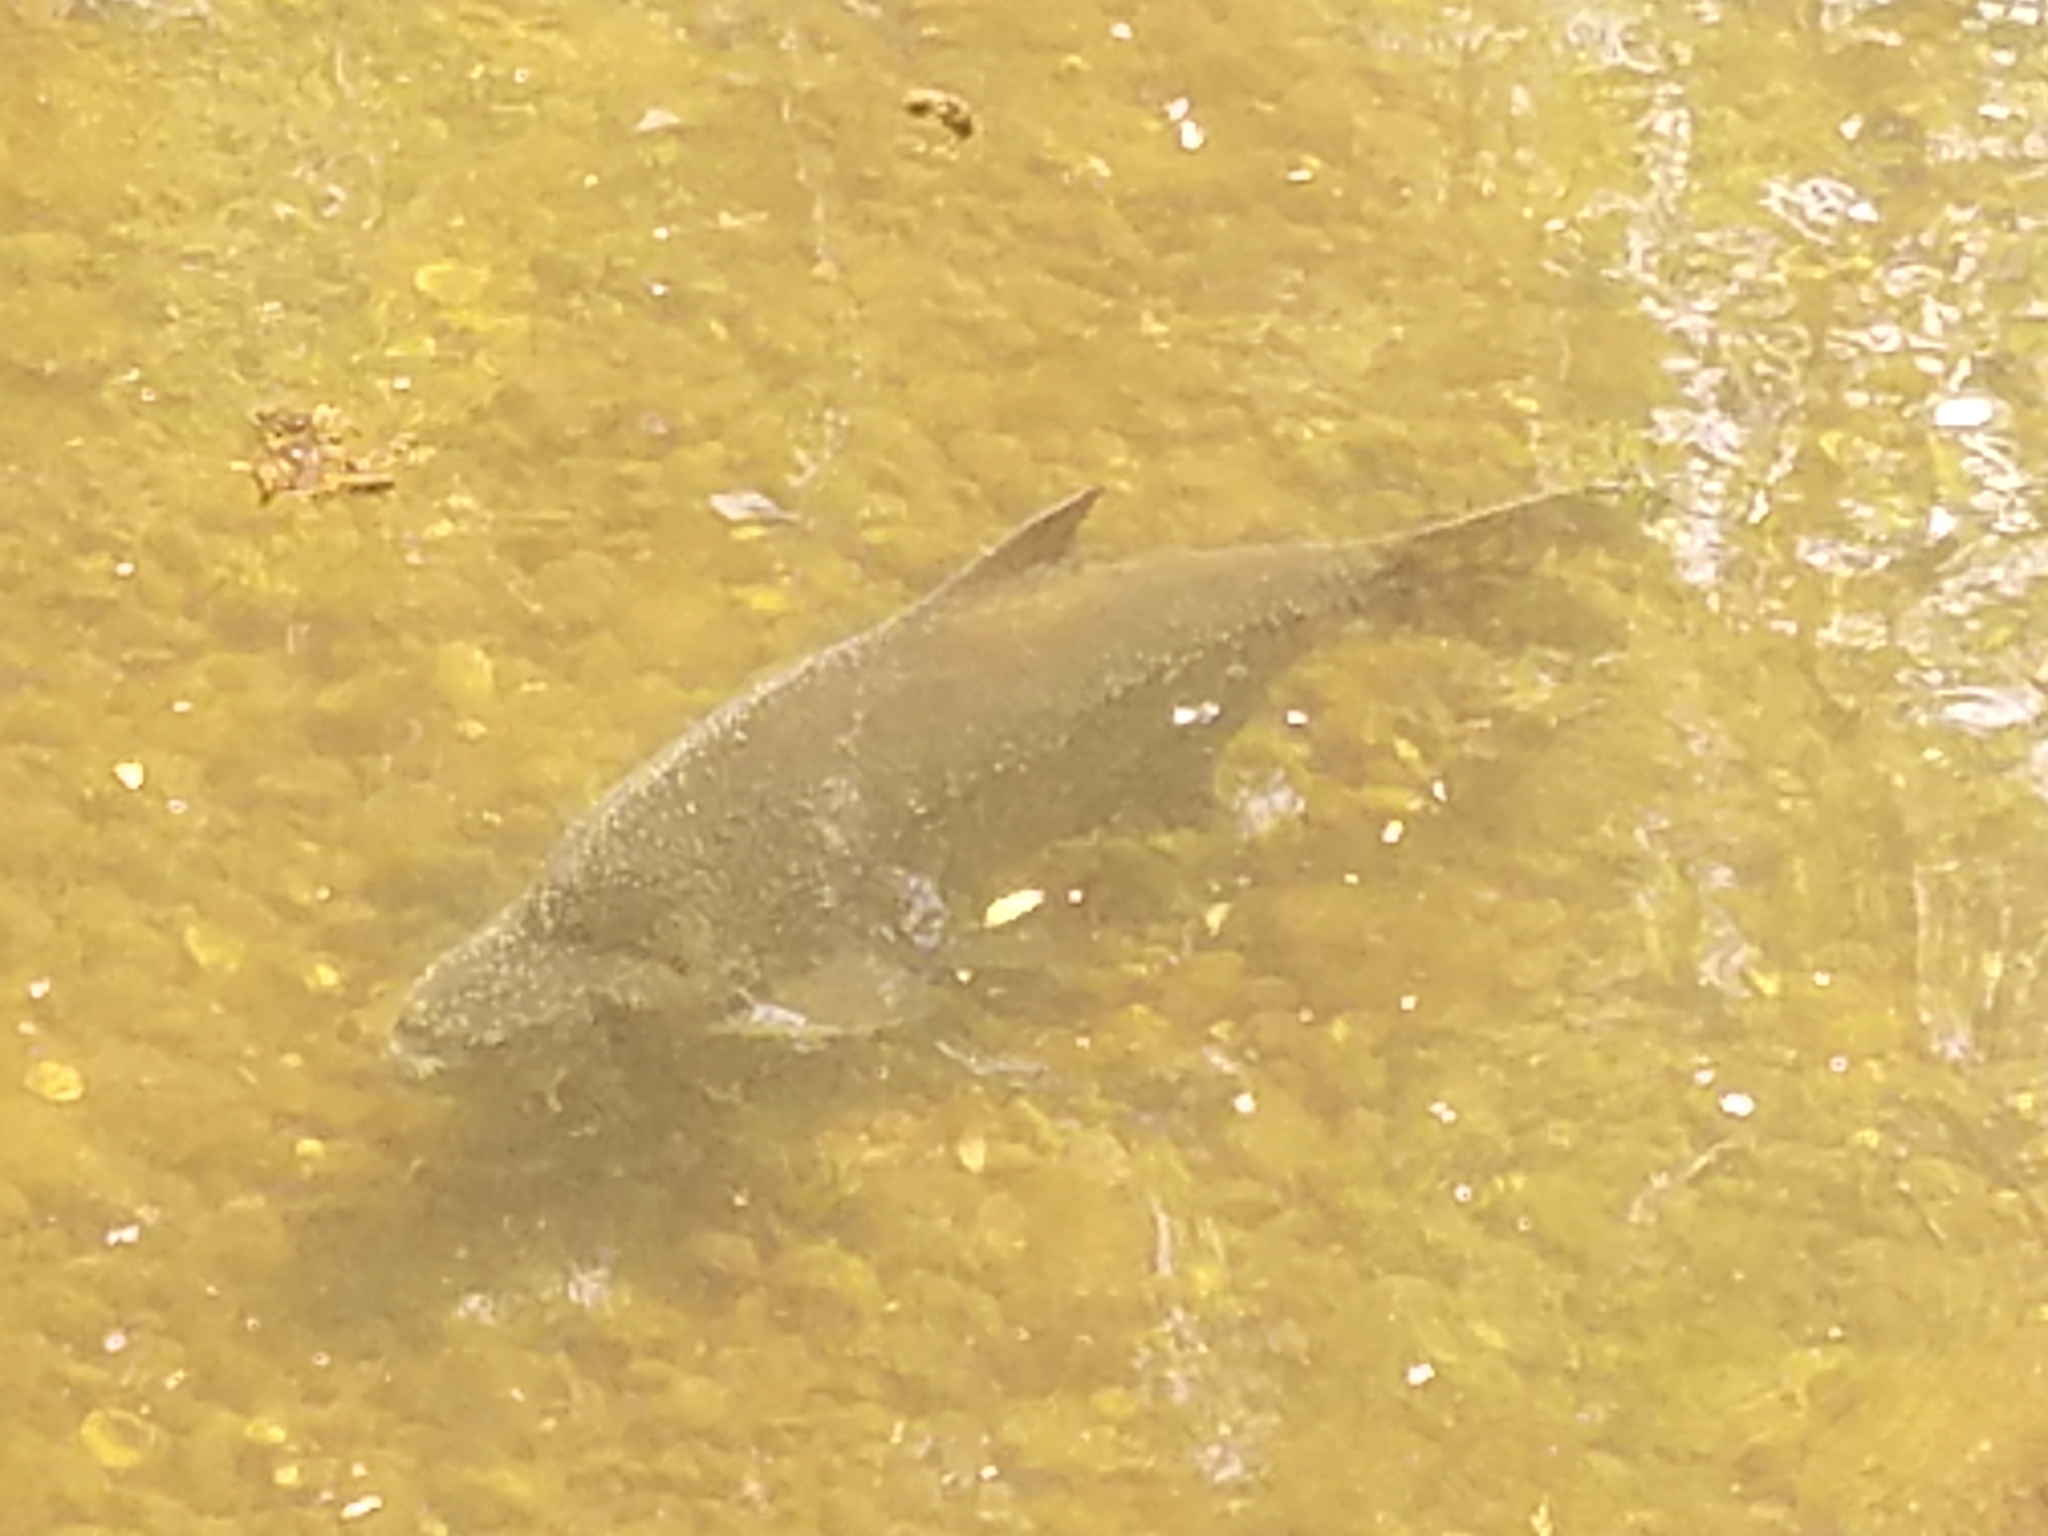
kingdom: Animalia
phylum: Chordata
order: Cypriniformes
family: Cyprinidae
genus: Abramis
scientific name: Abramis brama
